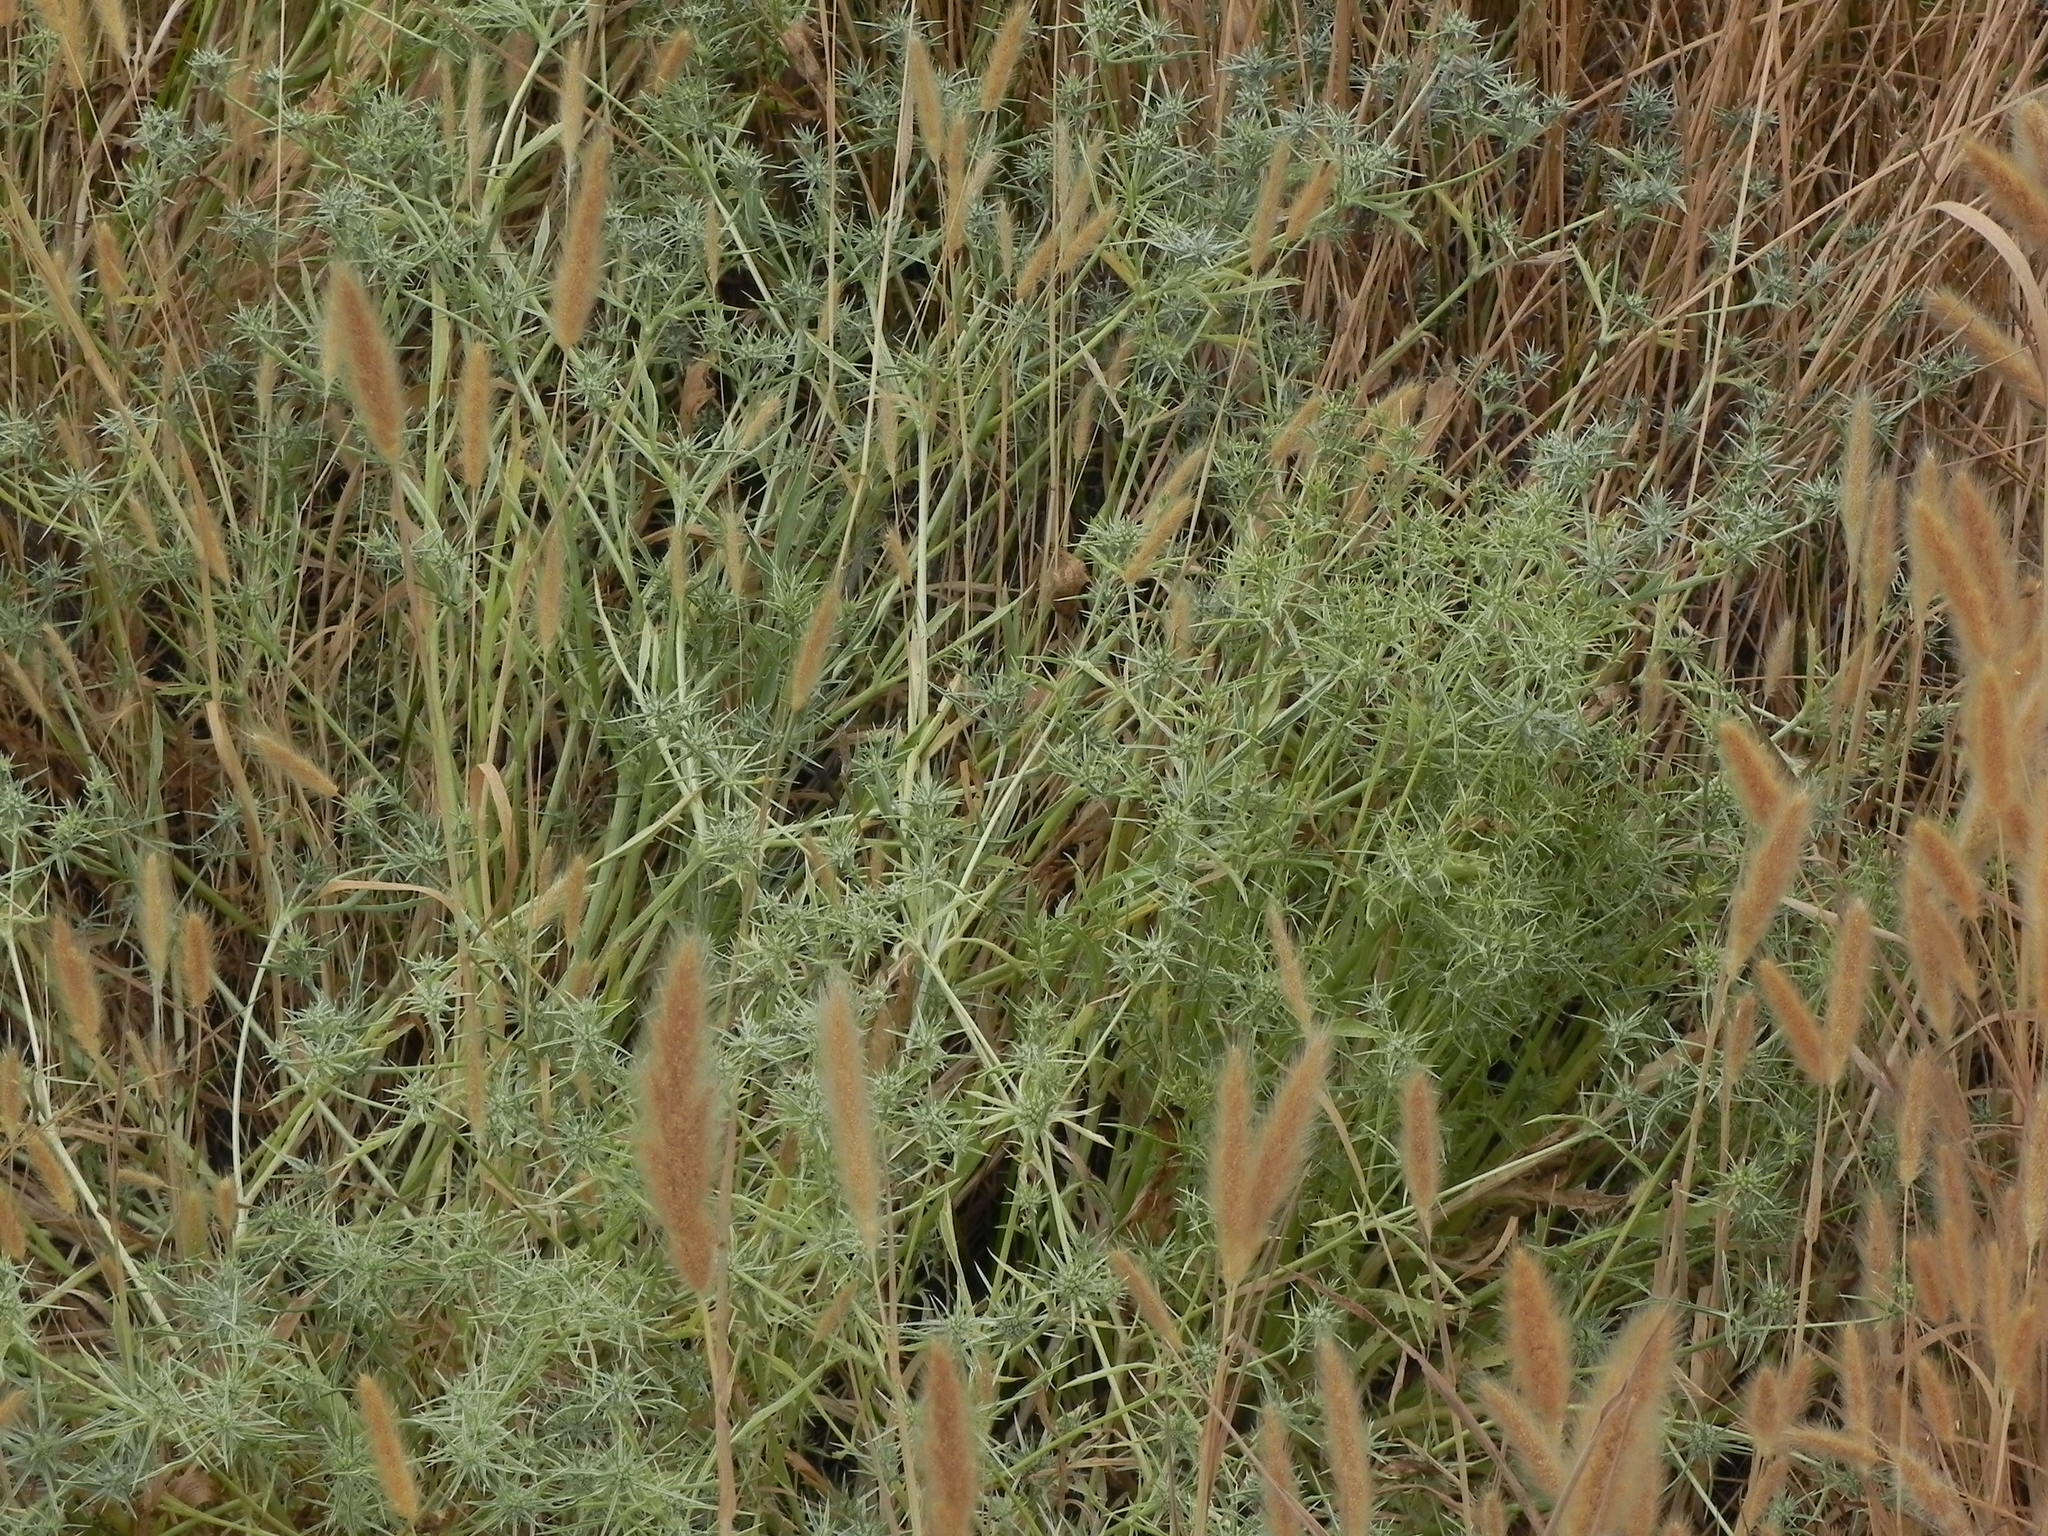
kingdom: Plantae
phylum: Tracheophyta
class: Magnoliopsida
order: Apiales
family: Apiaceae
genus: Eryngium
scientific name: Eryngium aristulatum
